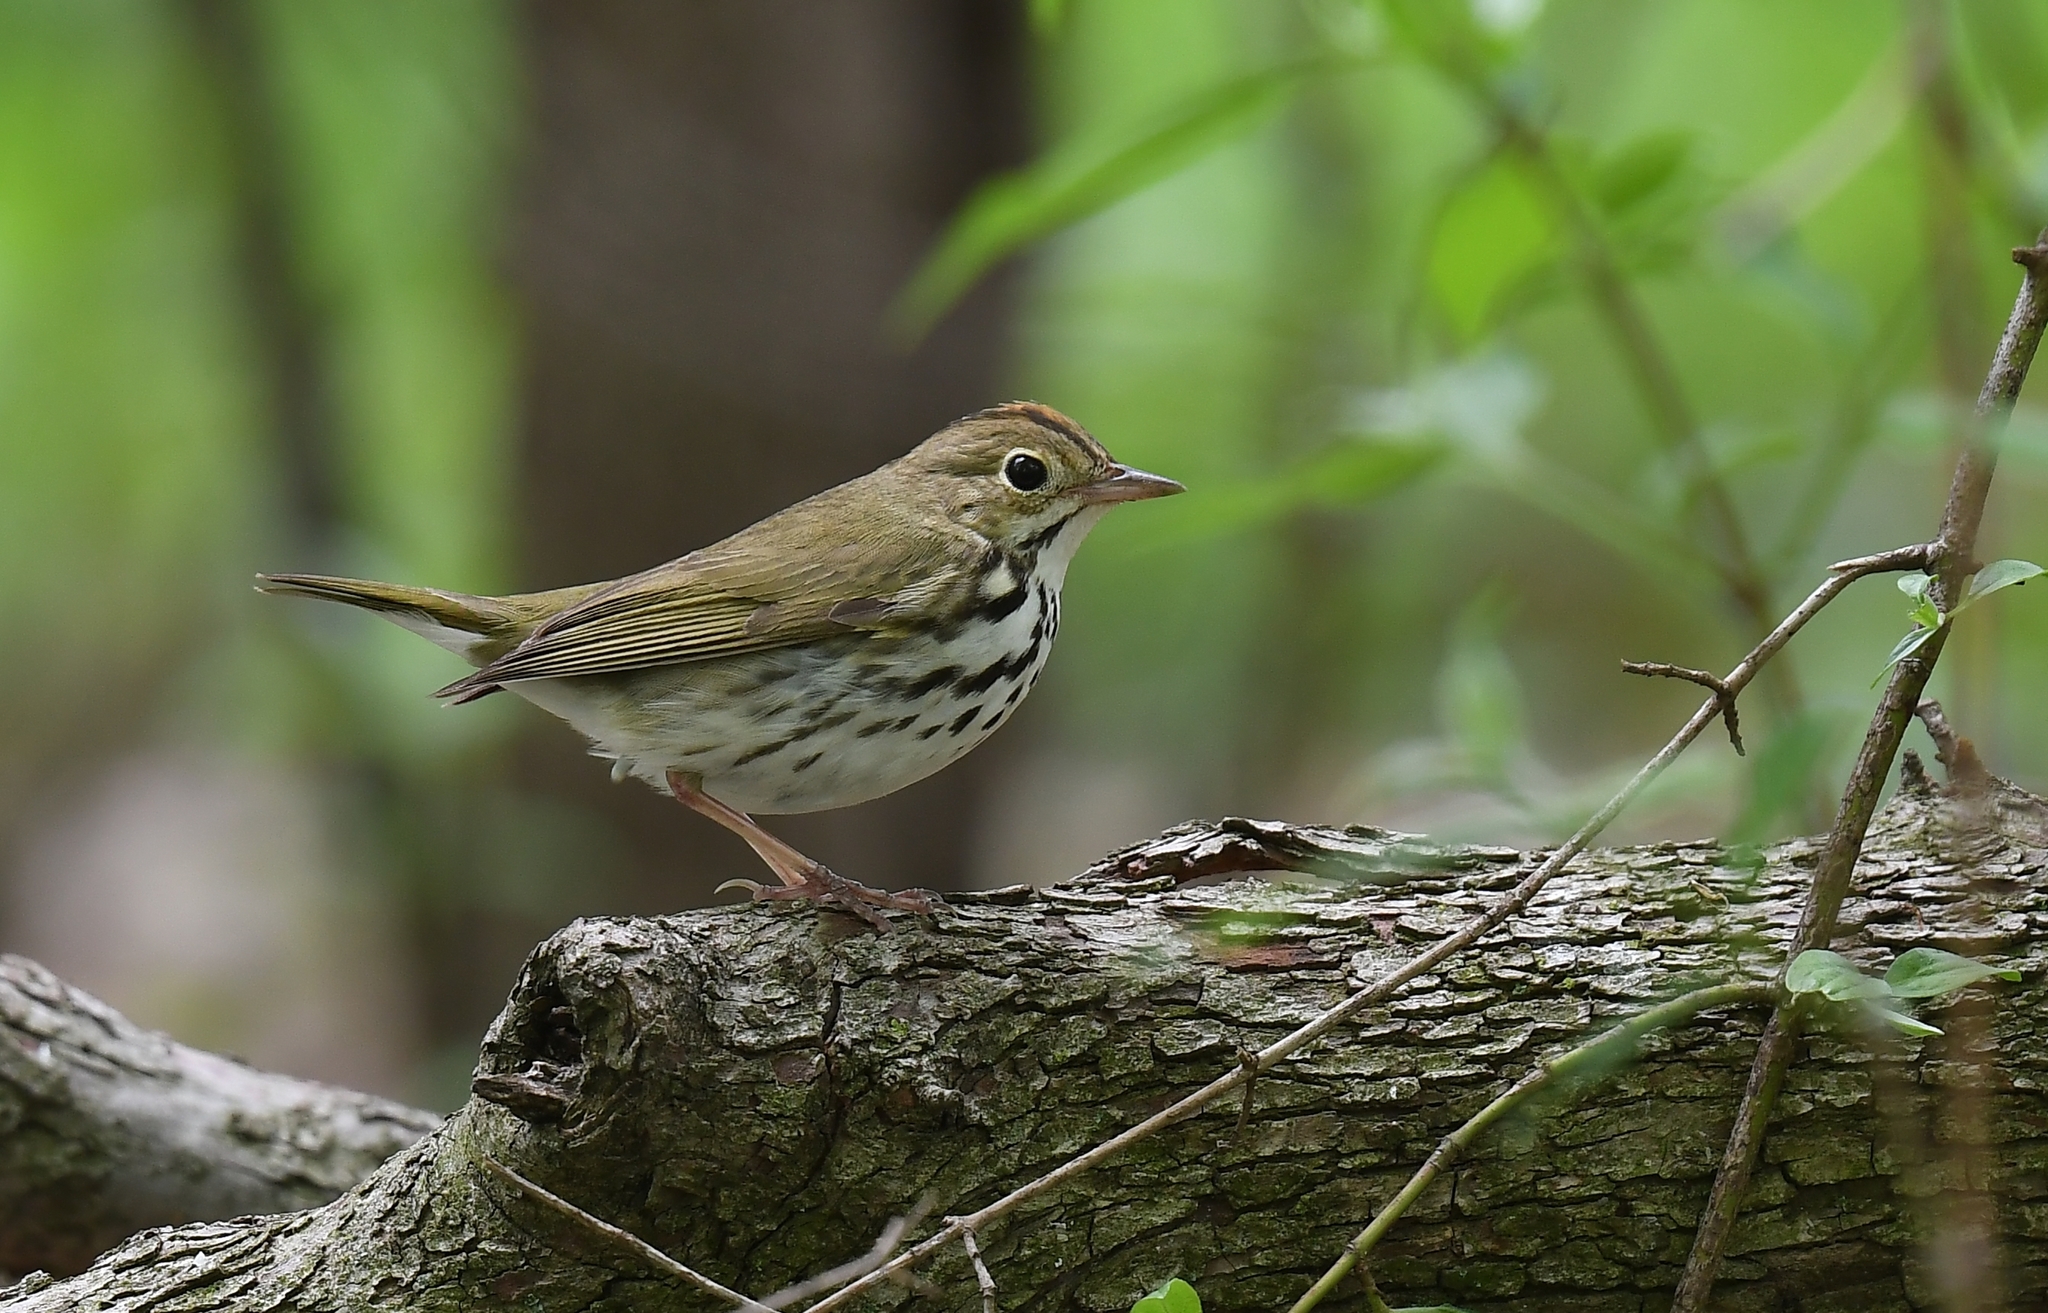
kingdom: Animalia
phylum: Chordata
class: Aves
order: Passeriformes
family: Parulidae
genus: Seiurus
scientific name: Seiurus aurocapilla
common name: Ovenbird
